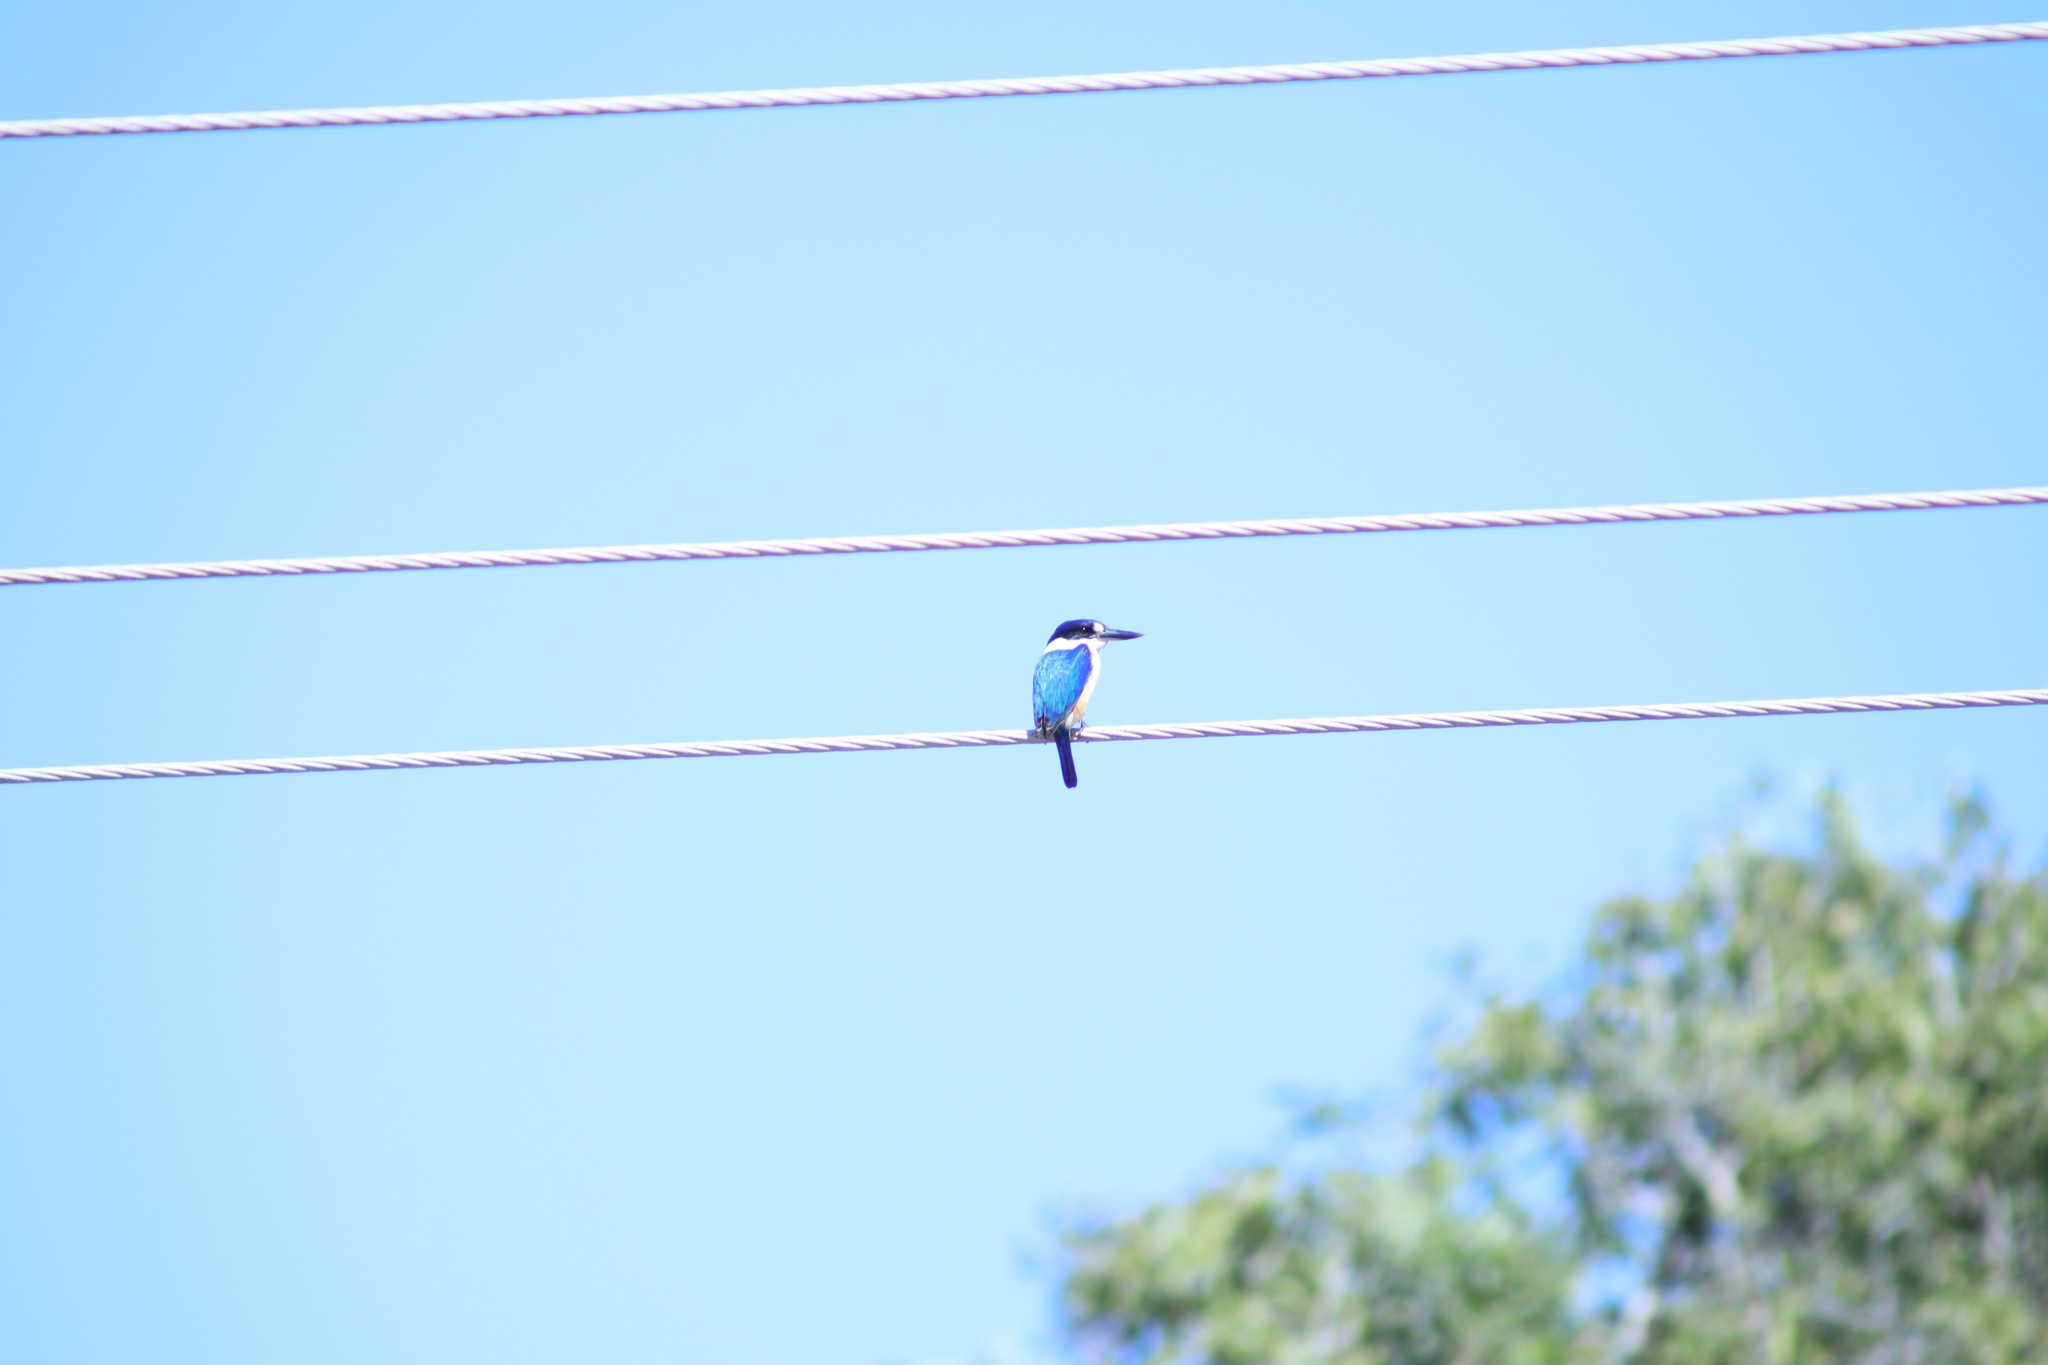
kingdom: Animalia
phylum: Chordata
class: Aves
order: Coraciiformes
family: Alcedinidae
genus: Todiramphus
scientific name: Todiramphus macleayii
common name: Forest kingfisher
